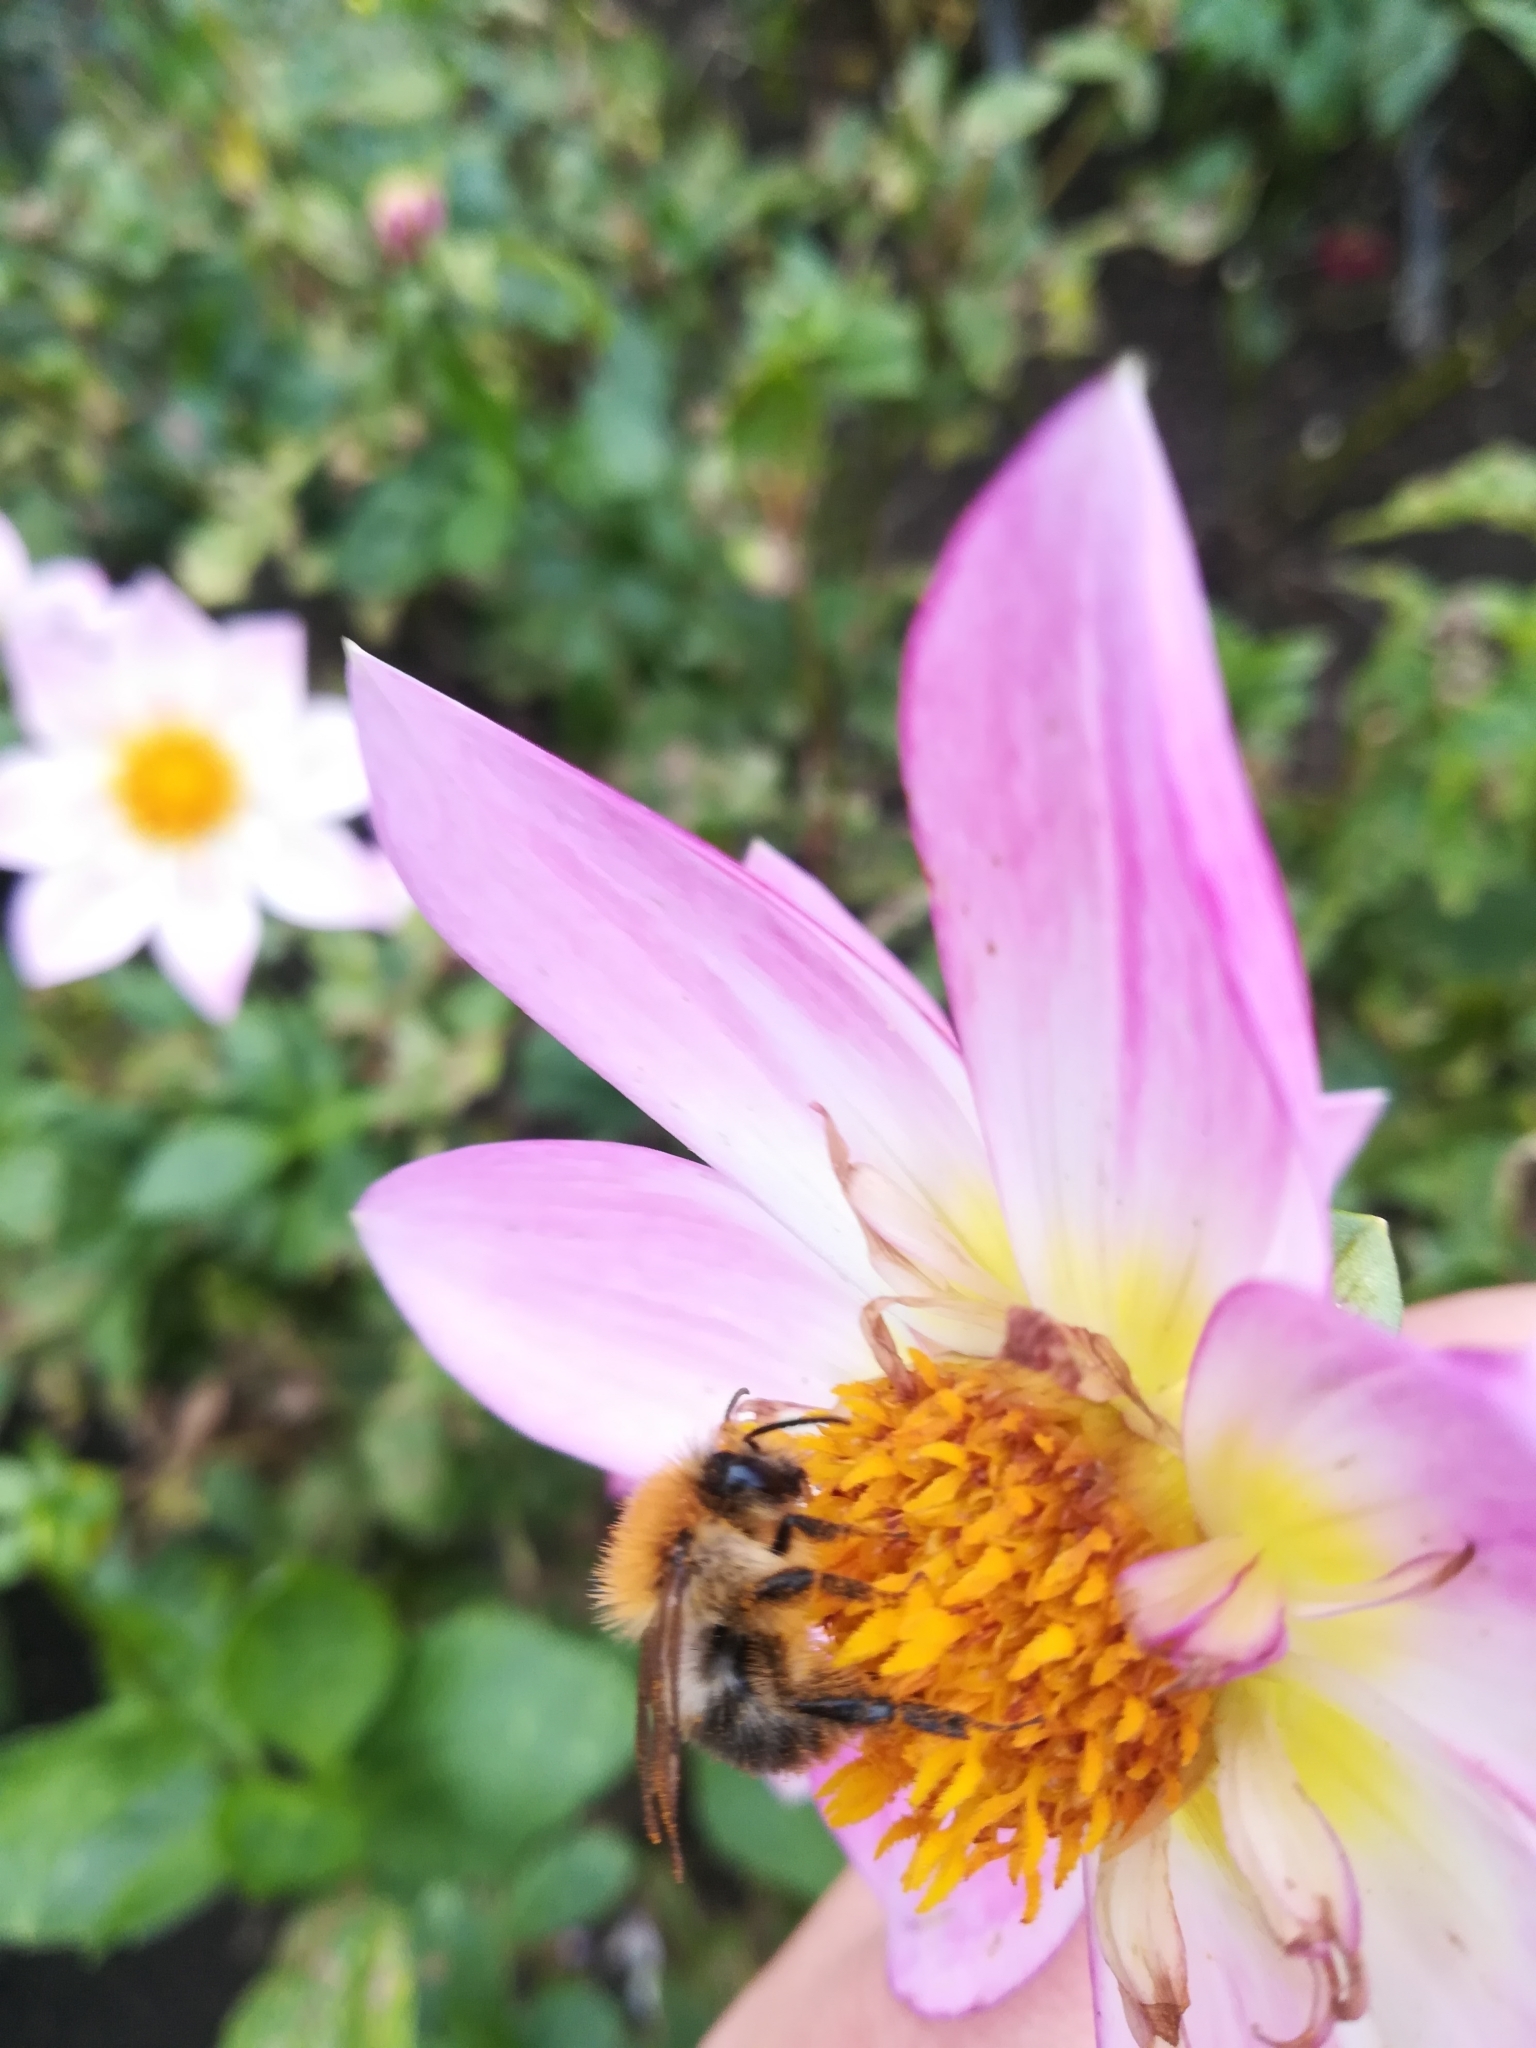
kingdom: Animalia
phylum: Arthropoda
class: Insecta
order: Hymenoptera
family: Apidae
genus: Bombus
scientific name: Bombus pascuorum
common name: Common carder bee
